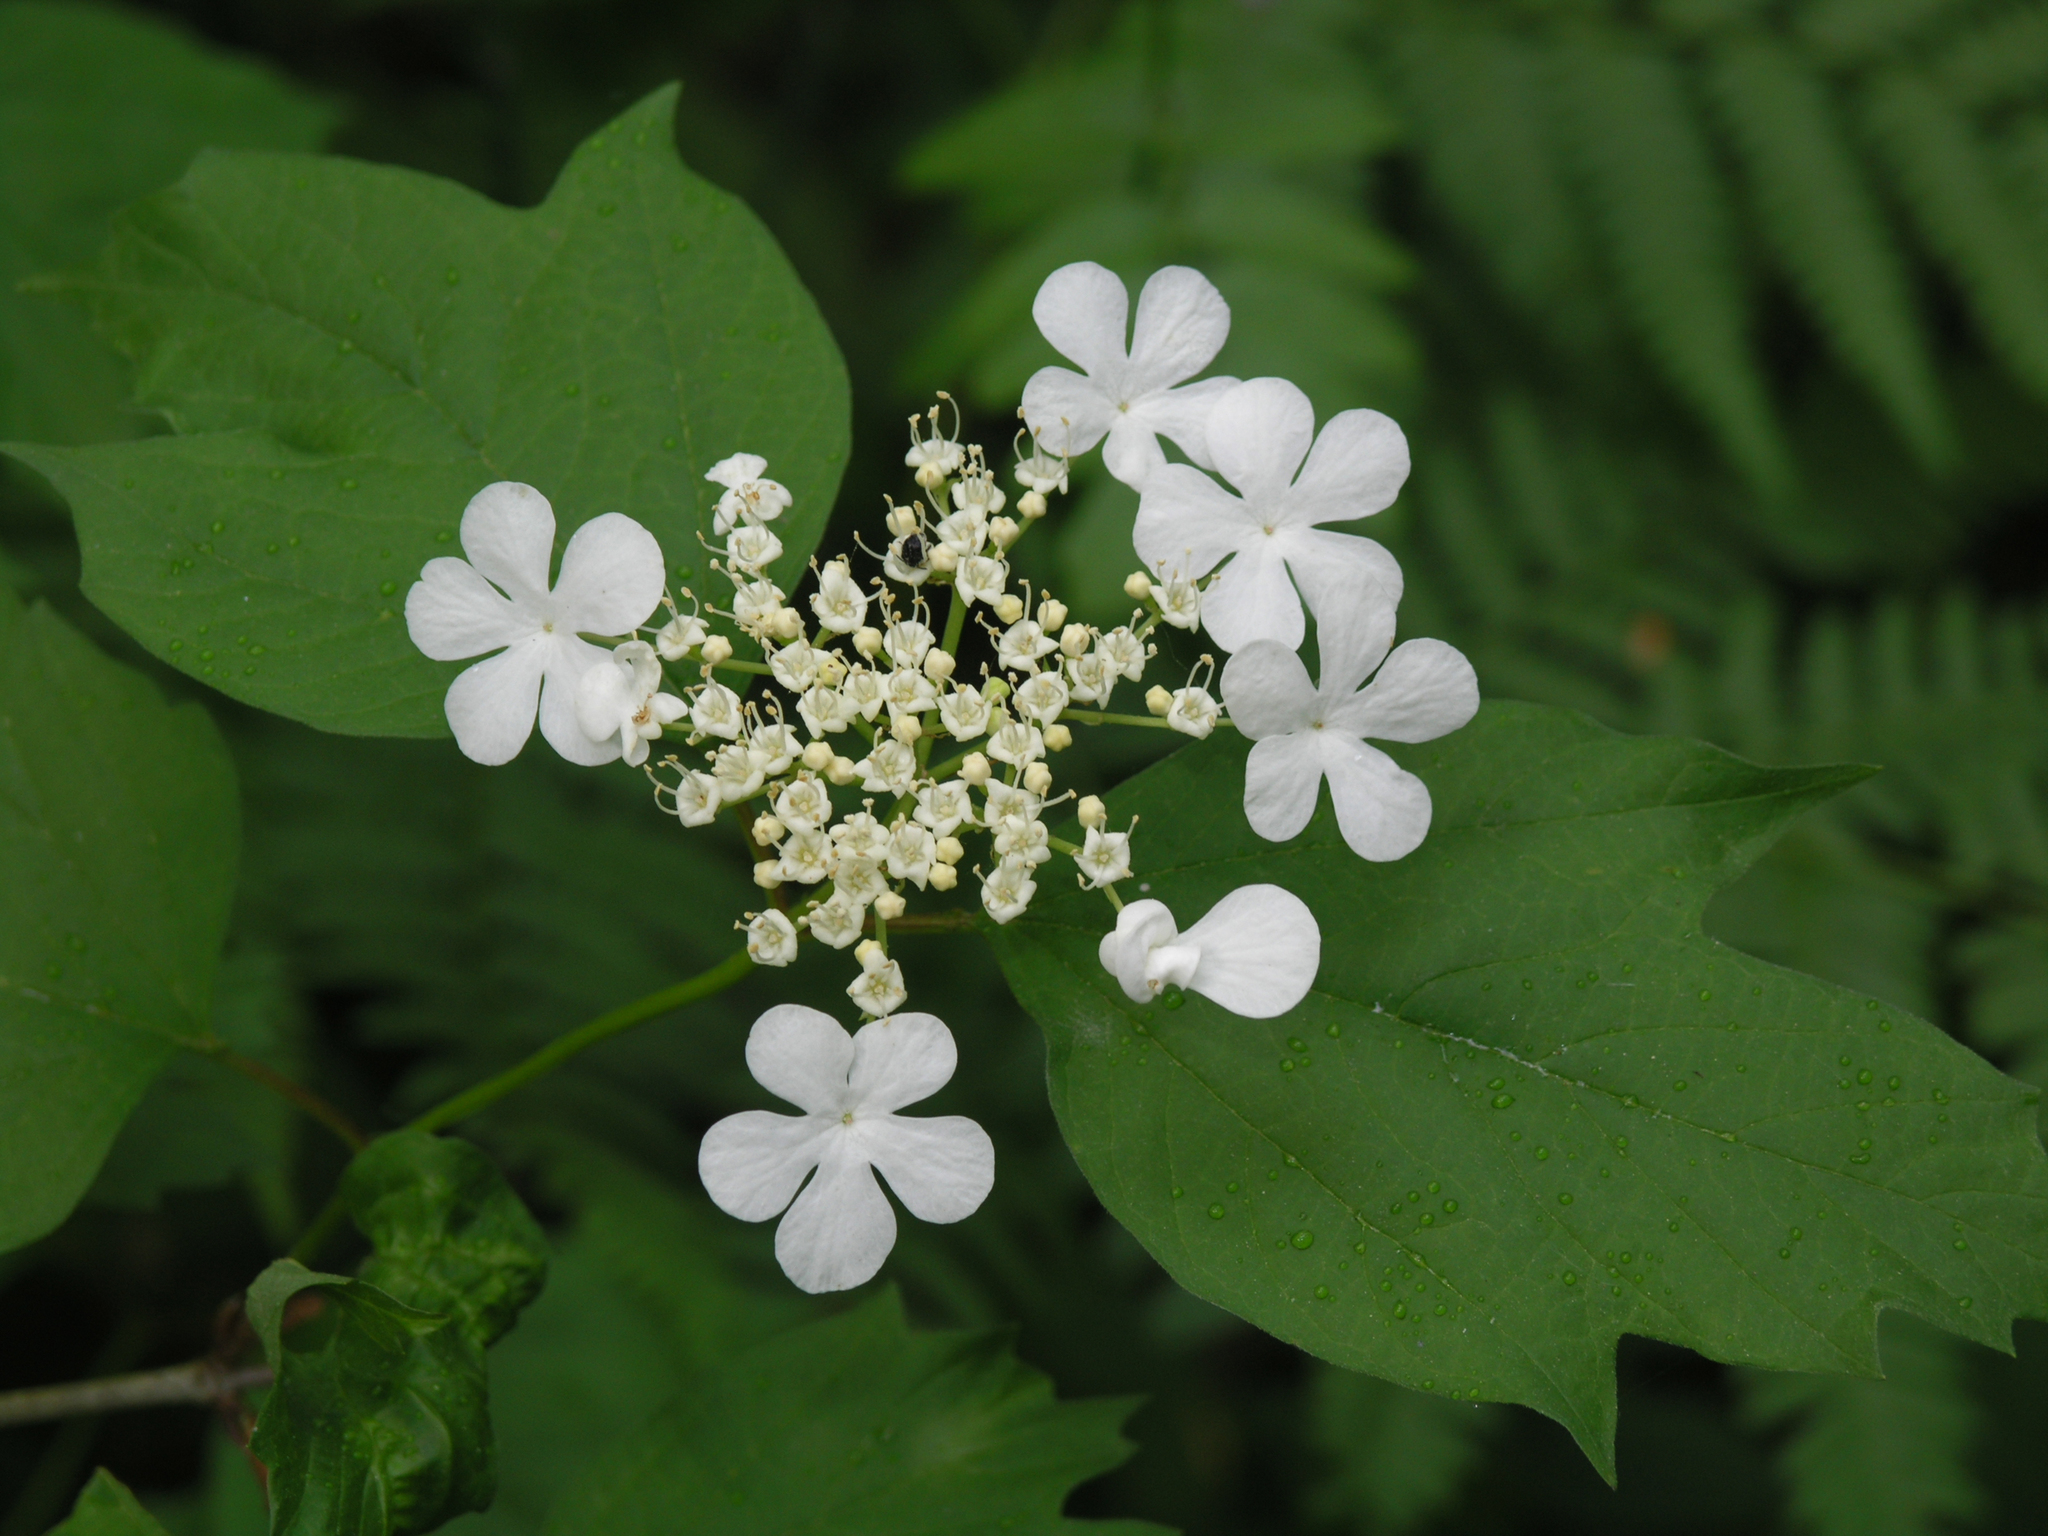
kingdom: Plantae
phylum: Tracheophyta
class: Magnoliopsida
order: Dipsacales
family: Viburnaceae
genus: Viburnum
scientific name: Viburnum opulus
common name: Guelder-rose
